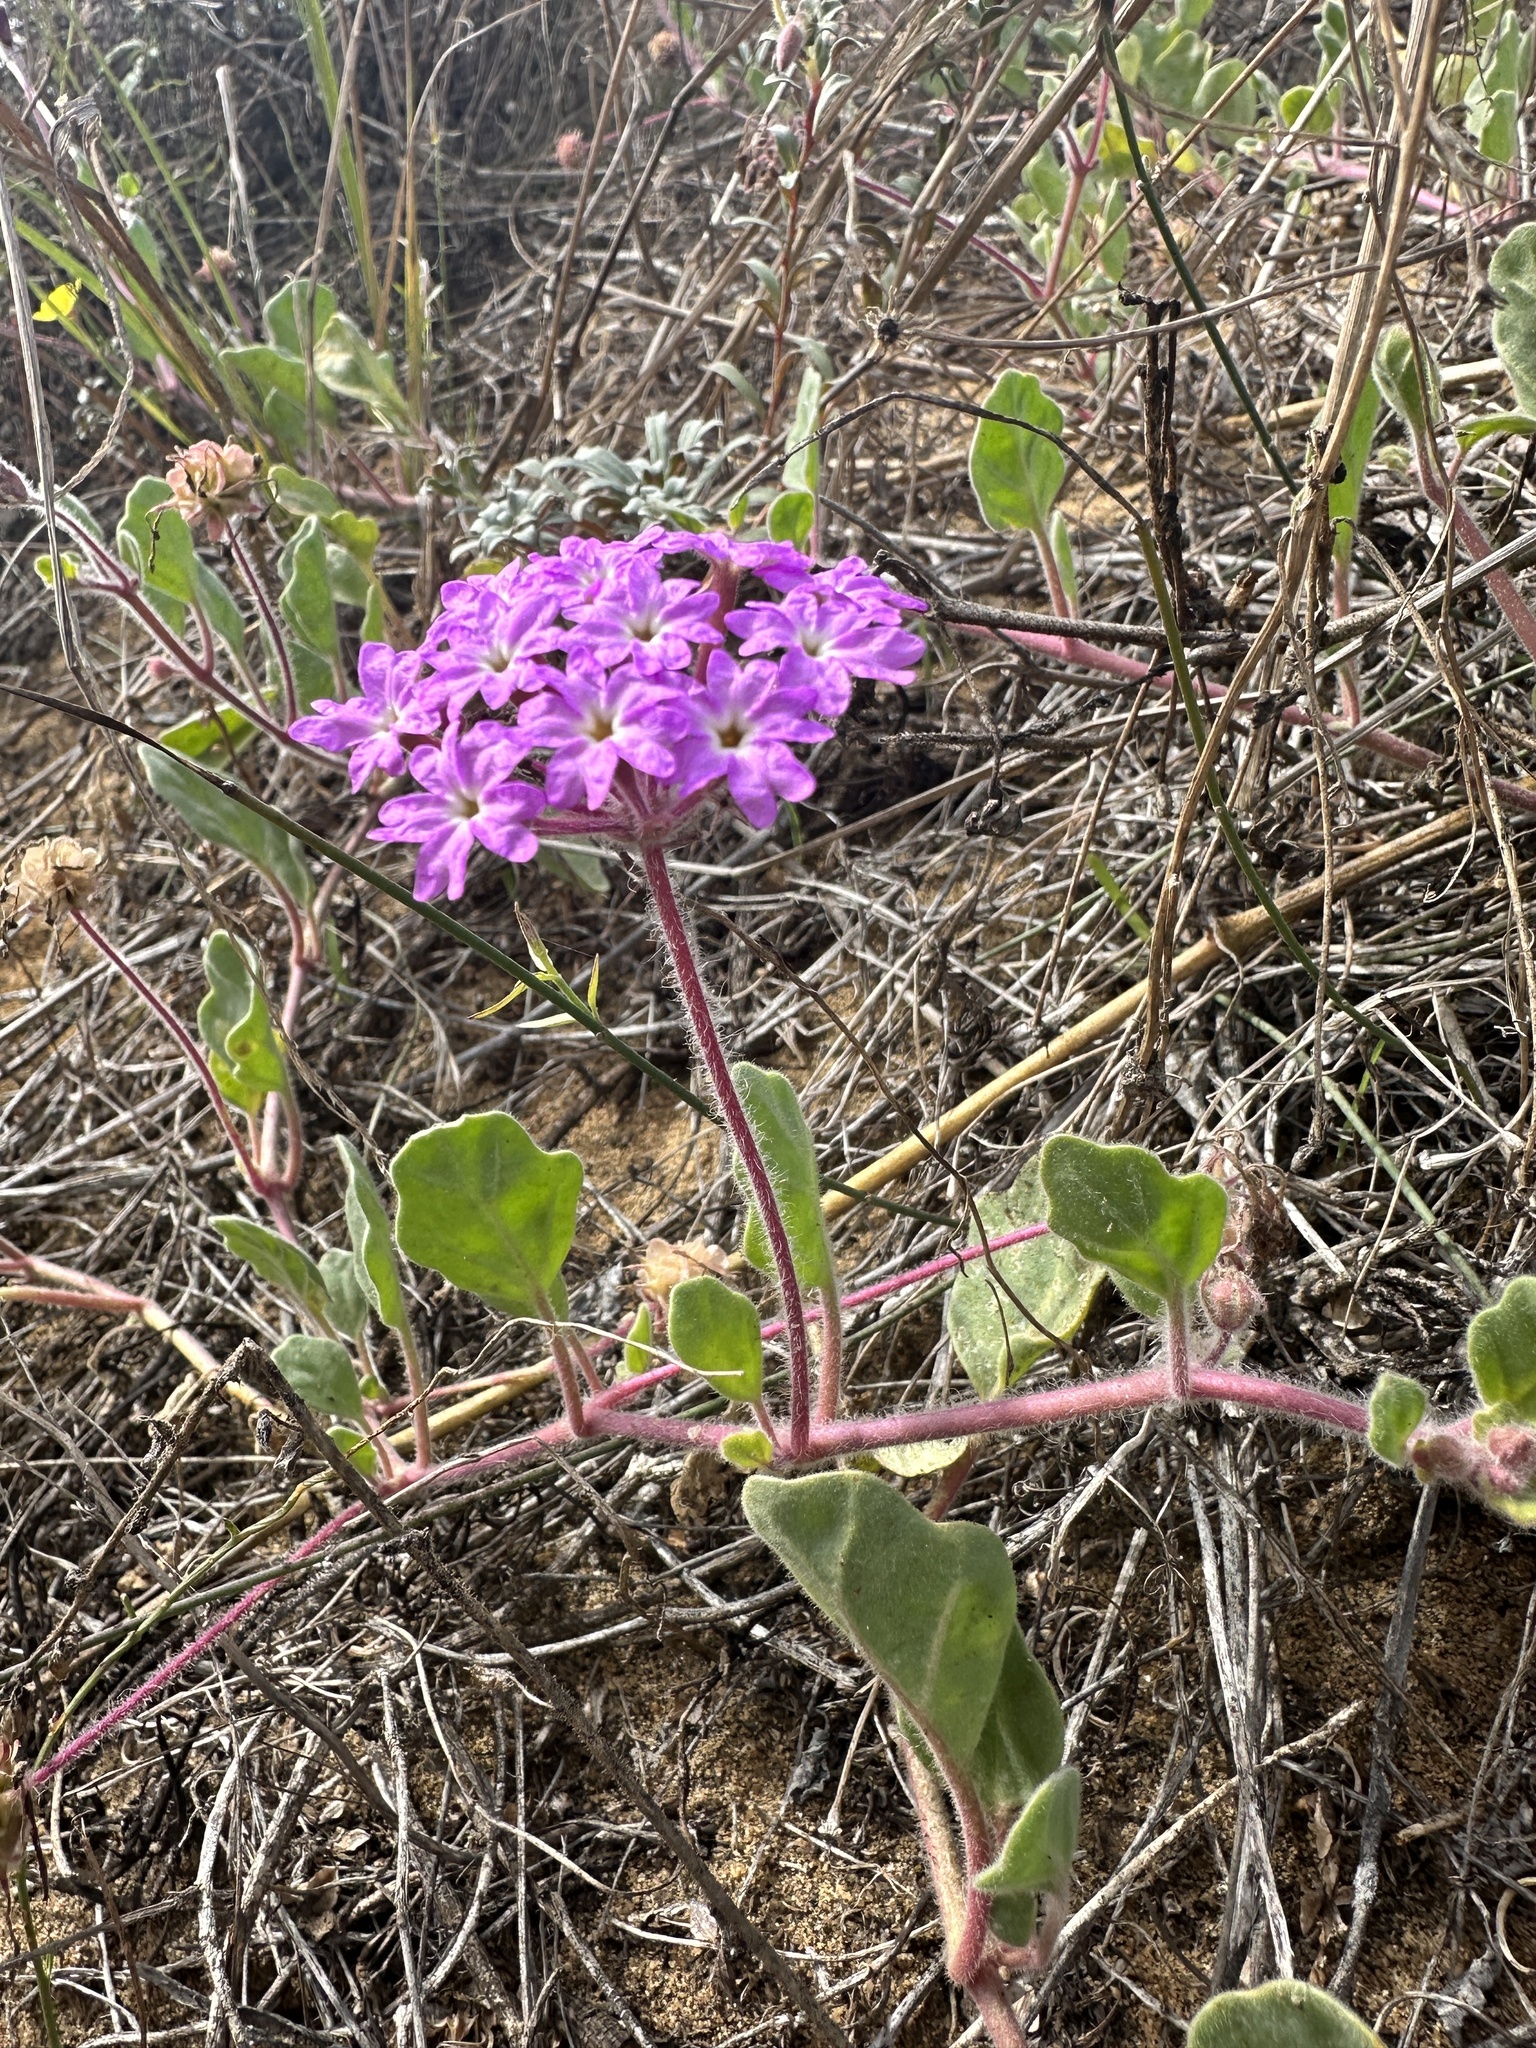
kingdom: Plantae
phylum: Tracheophyta
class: Magnoliopsida
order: Caryophyllales
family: Nyctaginaceae
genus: Abronia
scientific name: Abronia umbellata
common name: Sand-verbena
